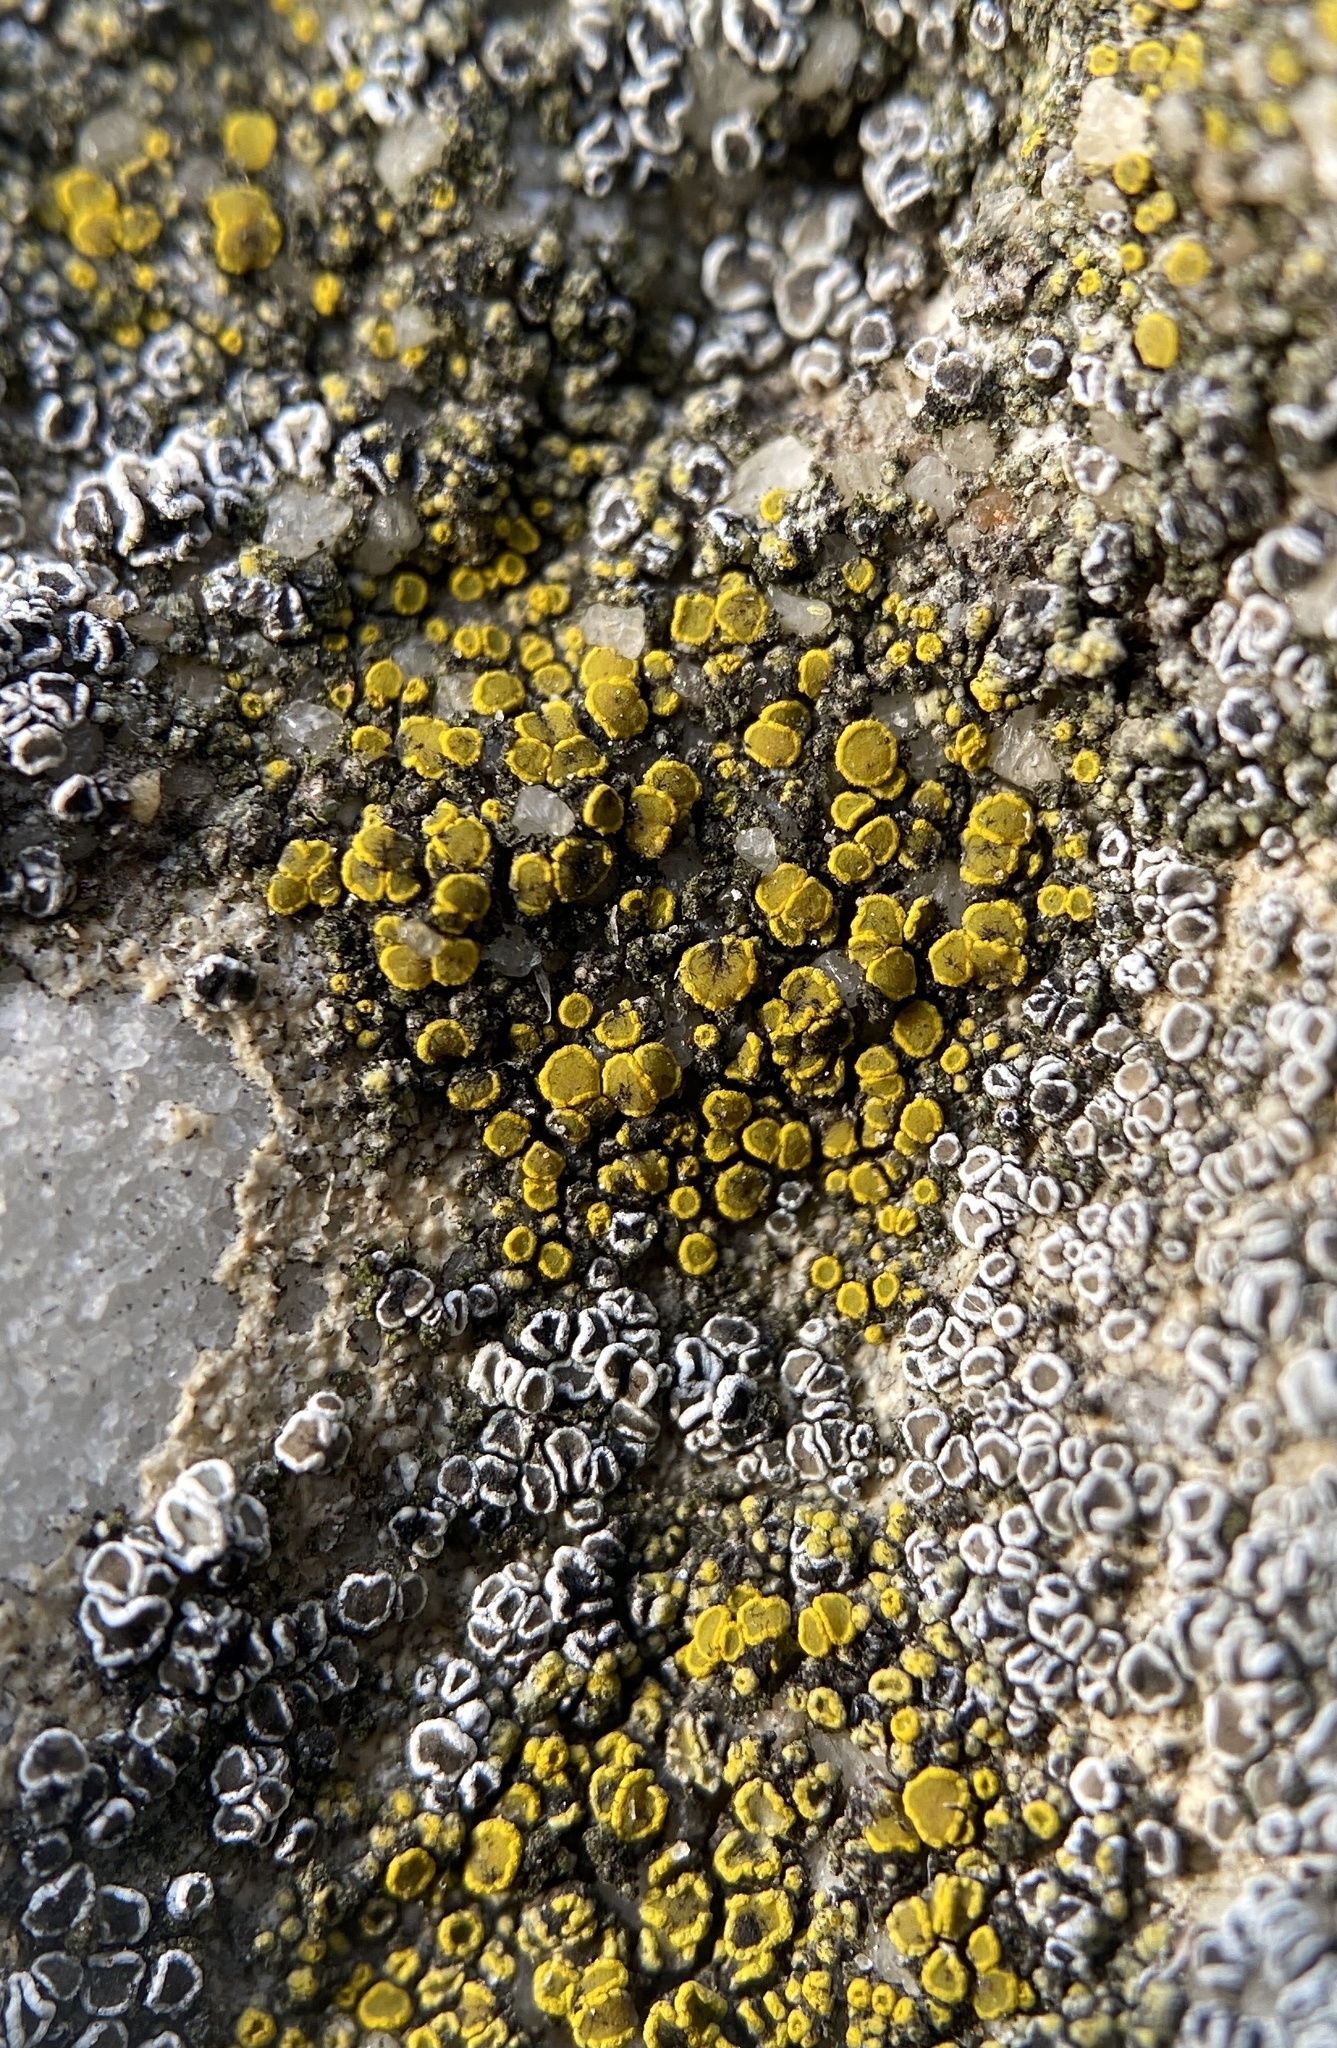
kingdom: Fungi
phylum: Ascomycota
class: Candelariomycetes
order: Candelariales
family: Candelariaceae
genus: Candelariella
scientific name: Candelariella aurella
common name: Hidden goldspeck lichen
